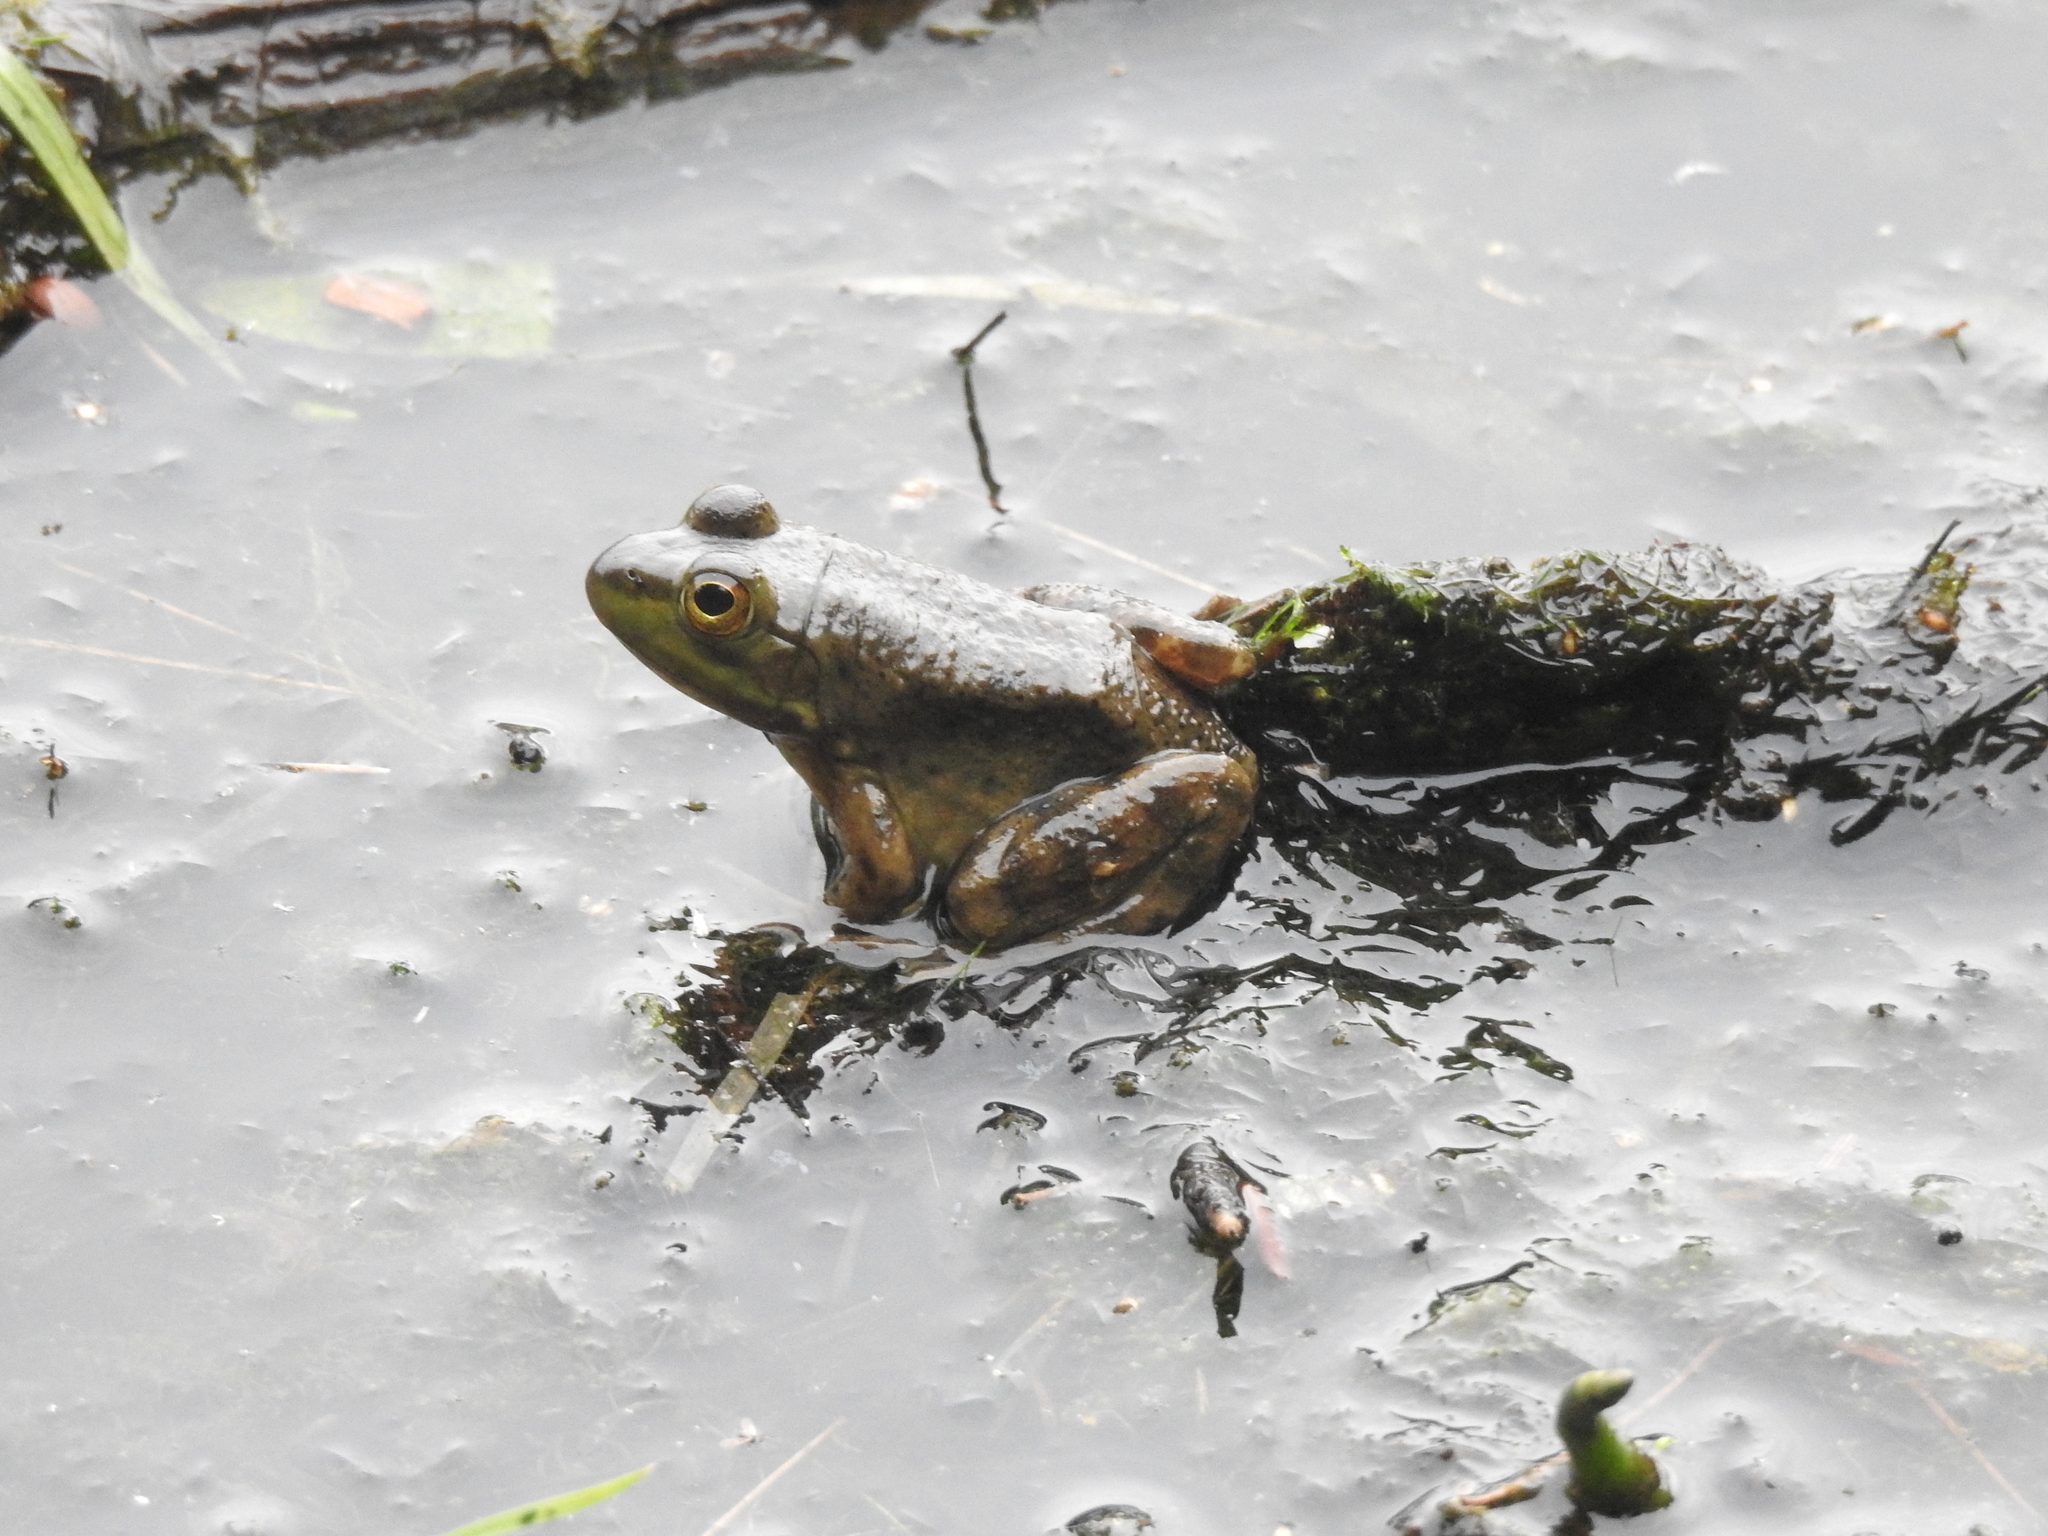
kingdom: Animalia
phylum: Chordata
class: Amphibia
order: Anura
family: Ranidae
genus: Lithobates
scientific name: Lithobates catesbeianus
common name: American bullfrog
